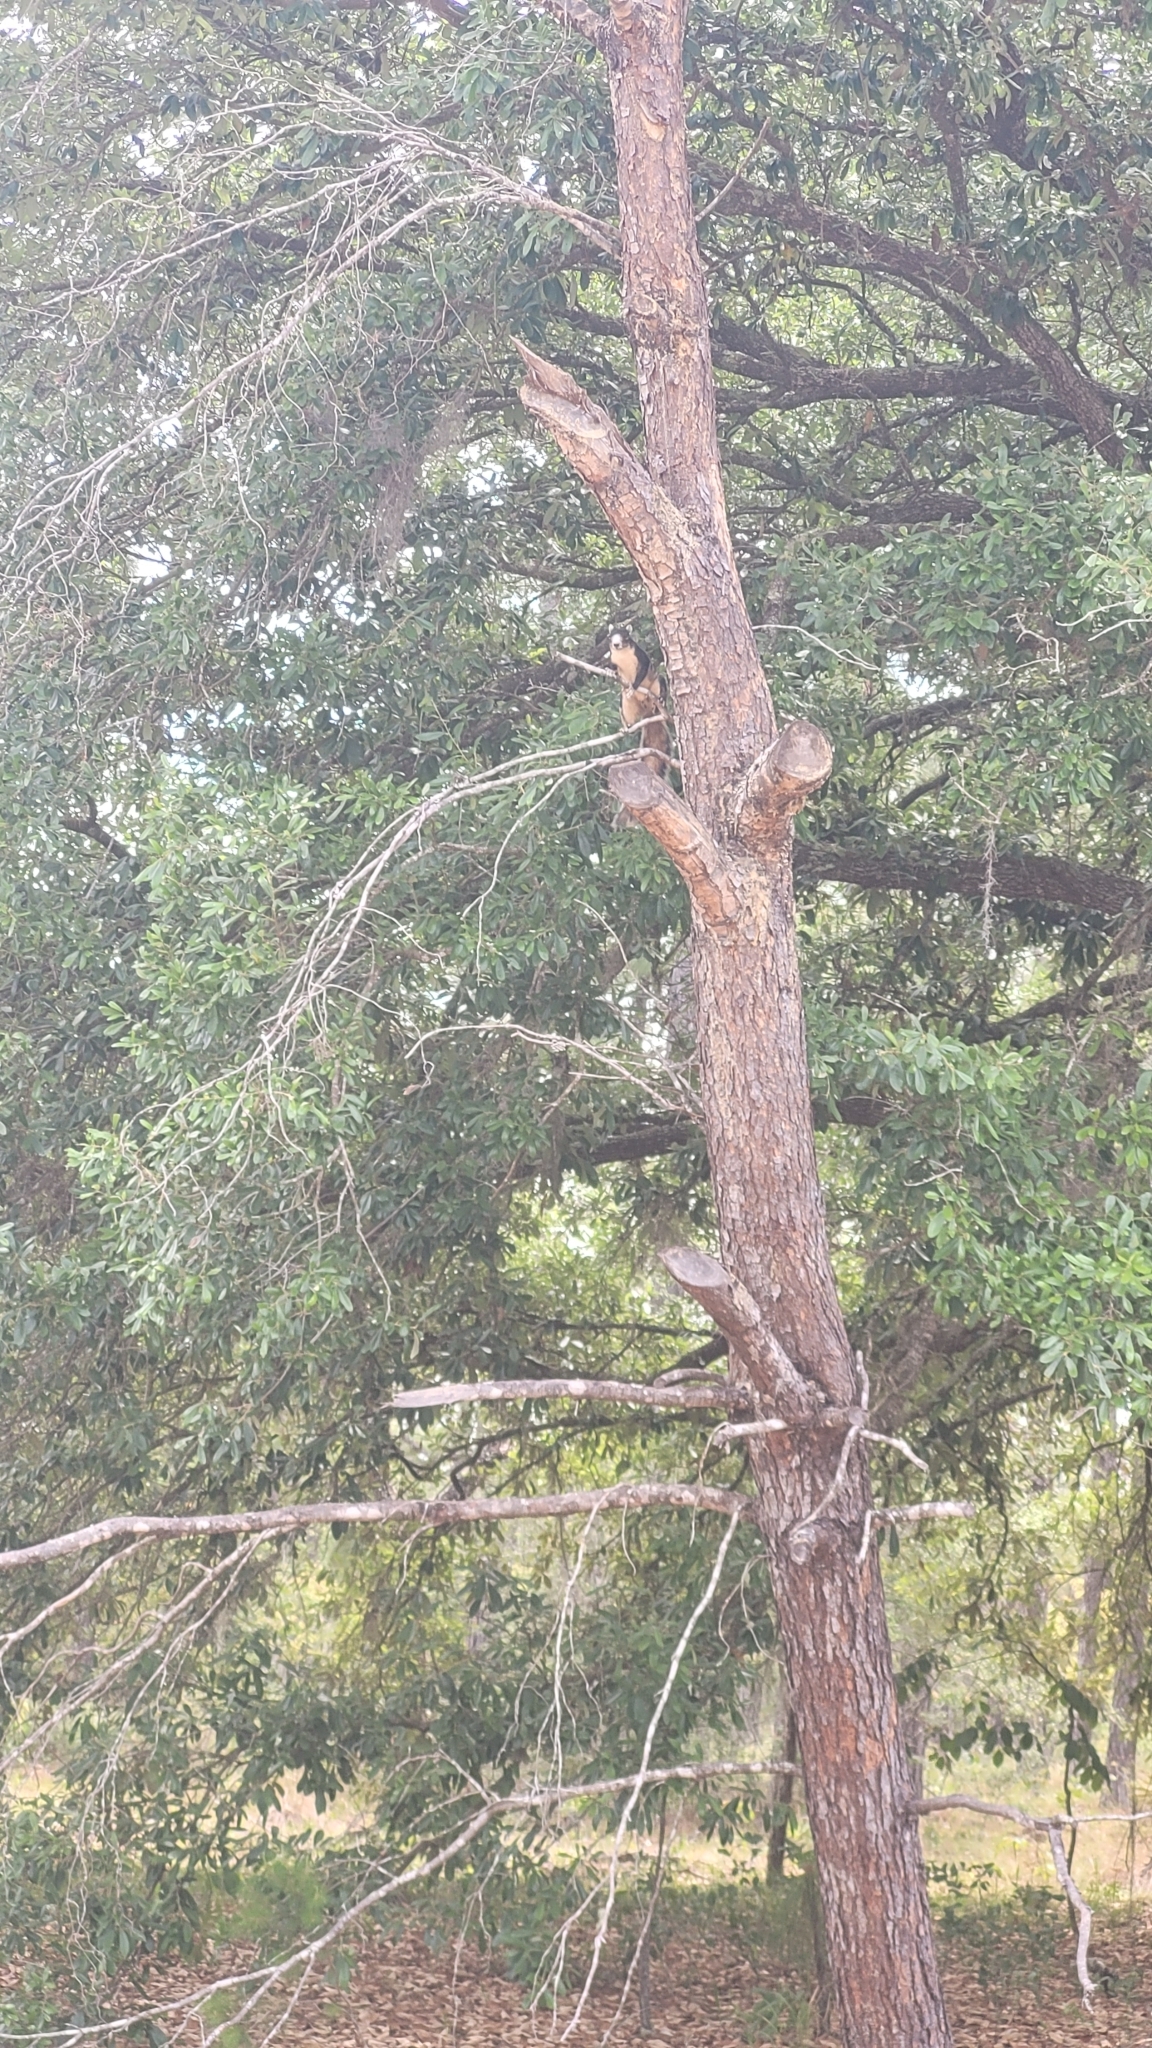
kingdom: Animalia
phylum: Chordata
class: Mammalia
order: Rodentia
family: Sciuridae
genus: Sciurus
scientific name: Sciurus niger
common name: Fox squirrel
